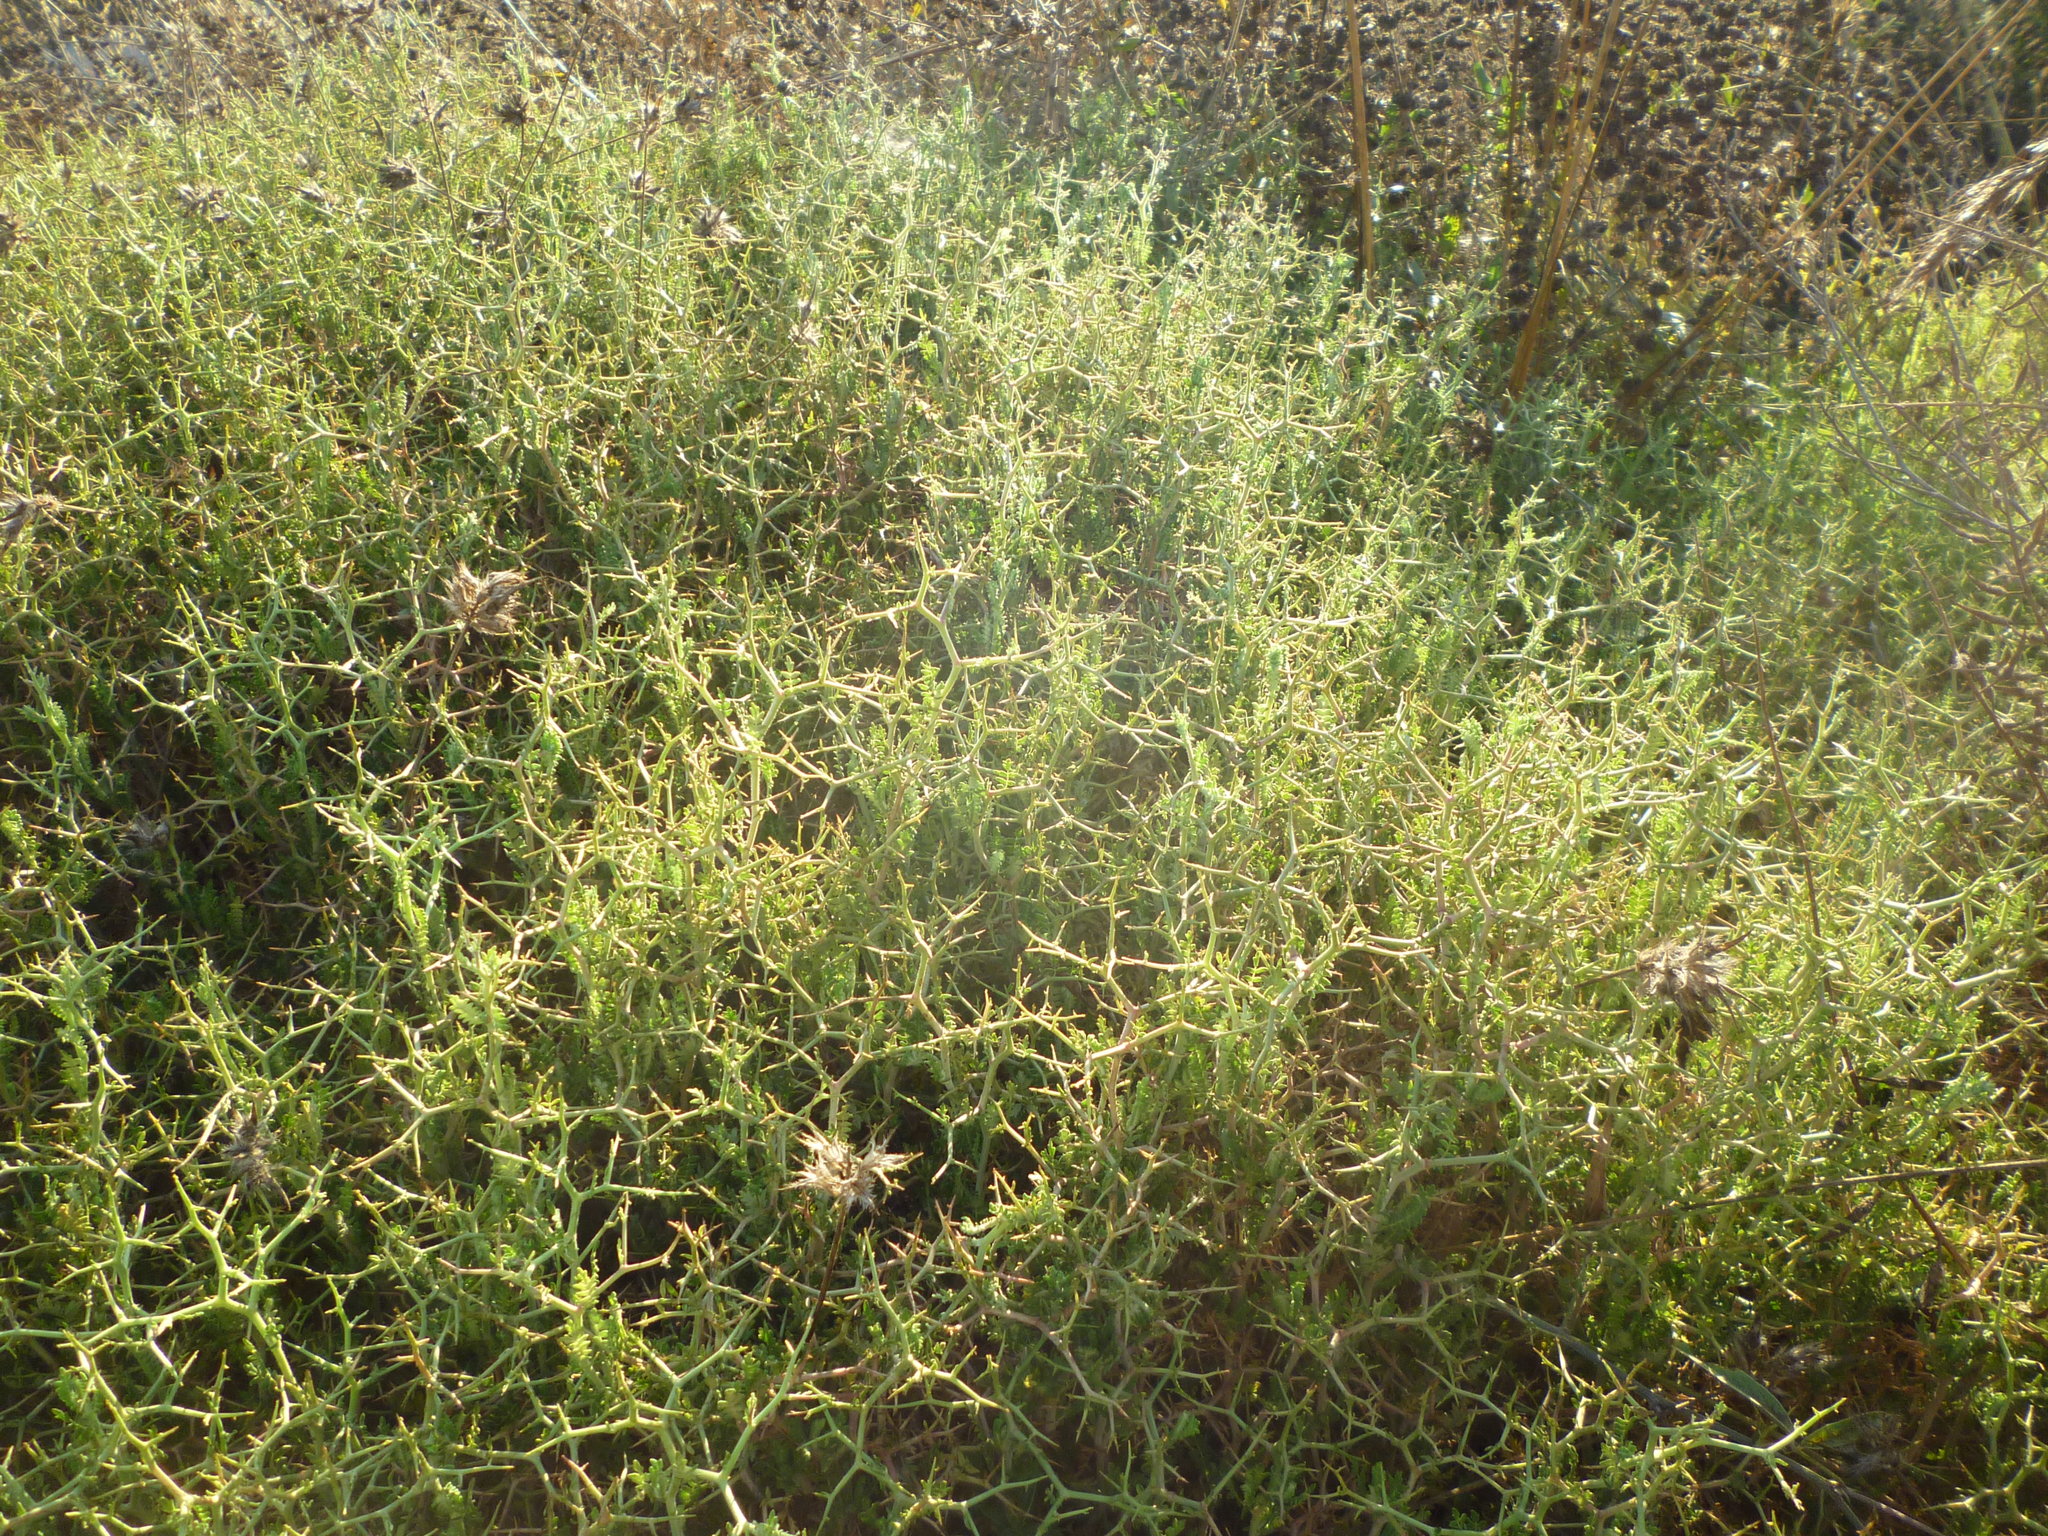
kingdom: Plantae
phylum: Tracheophyta
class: Magnoliopsida
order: Rosales
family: Rosaceae
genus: Sarcopoterium
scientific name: Sarcopoterium spinosum
